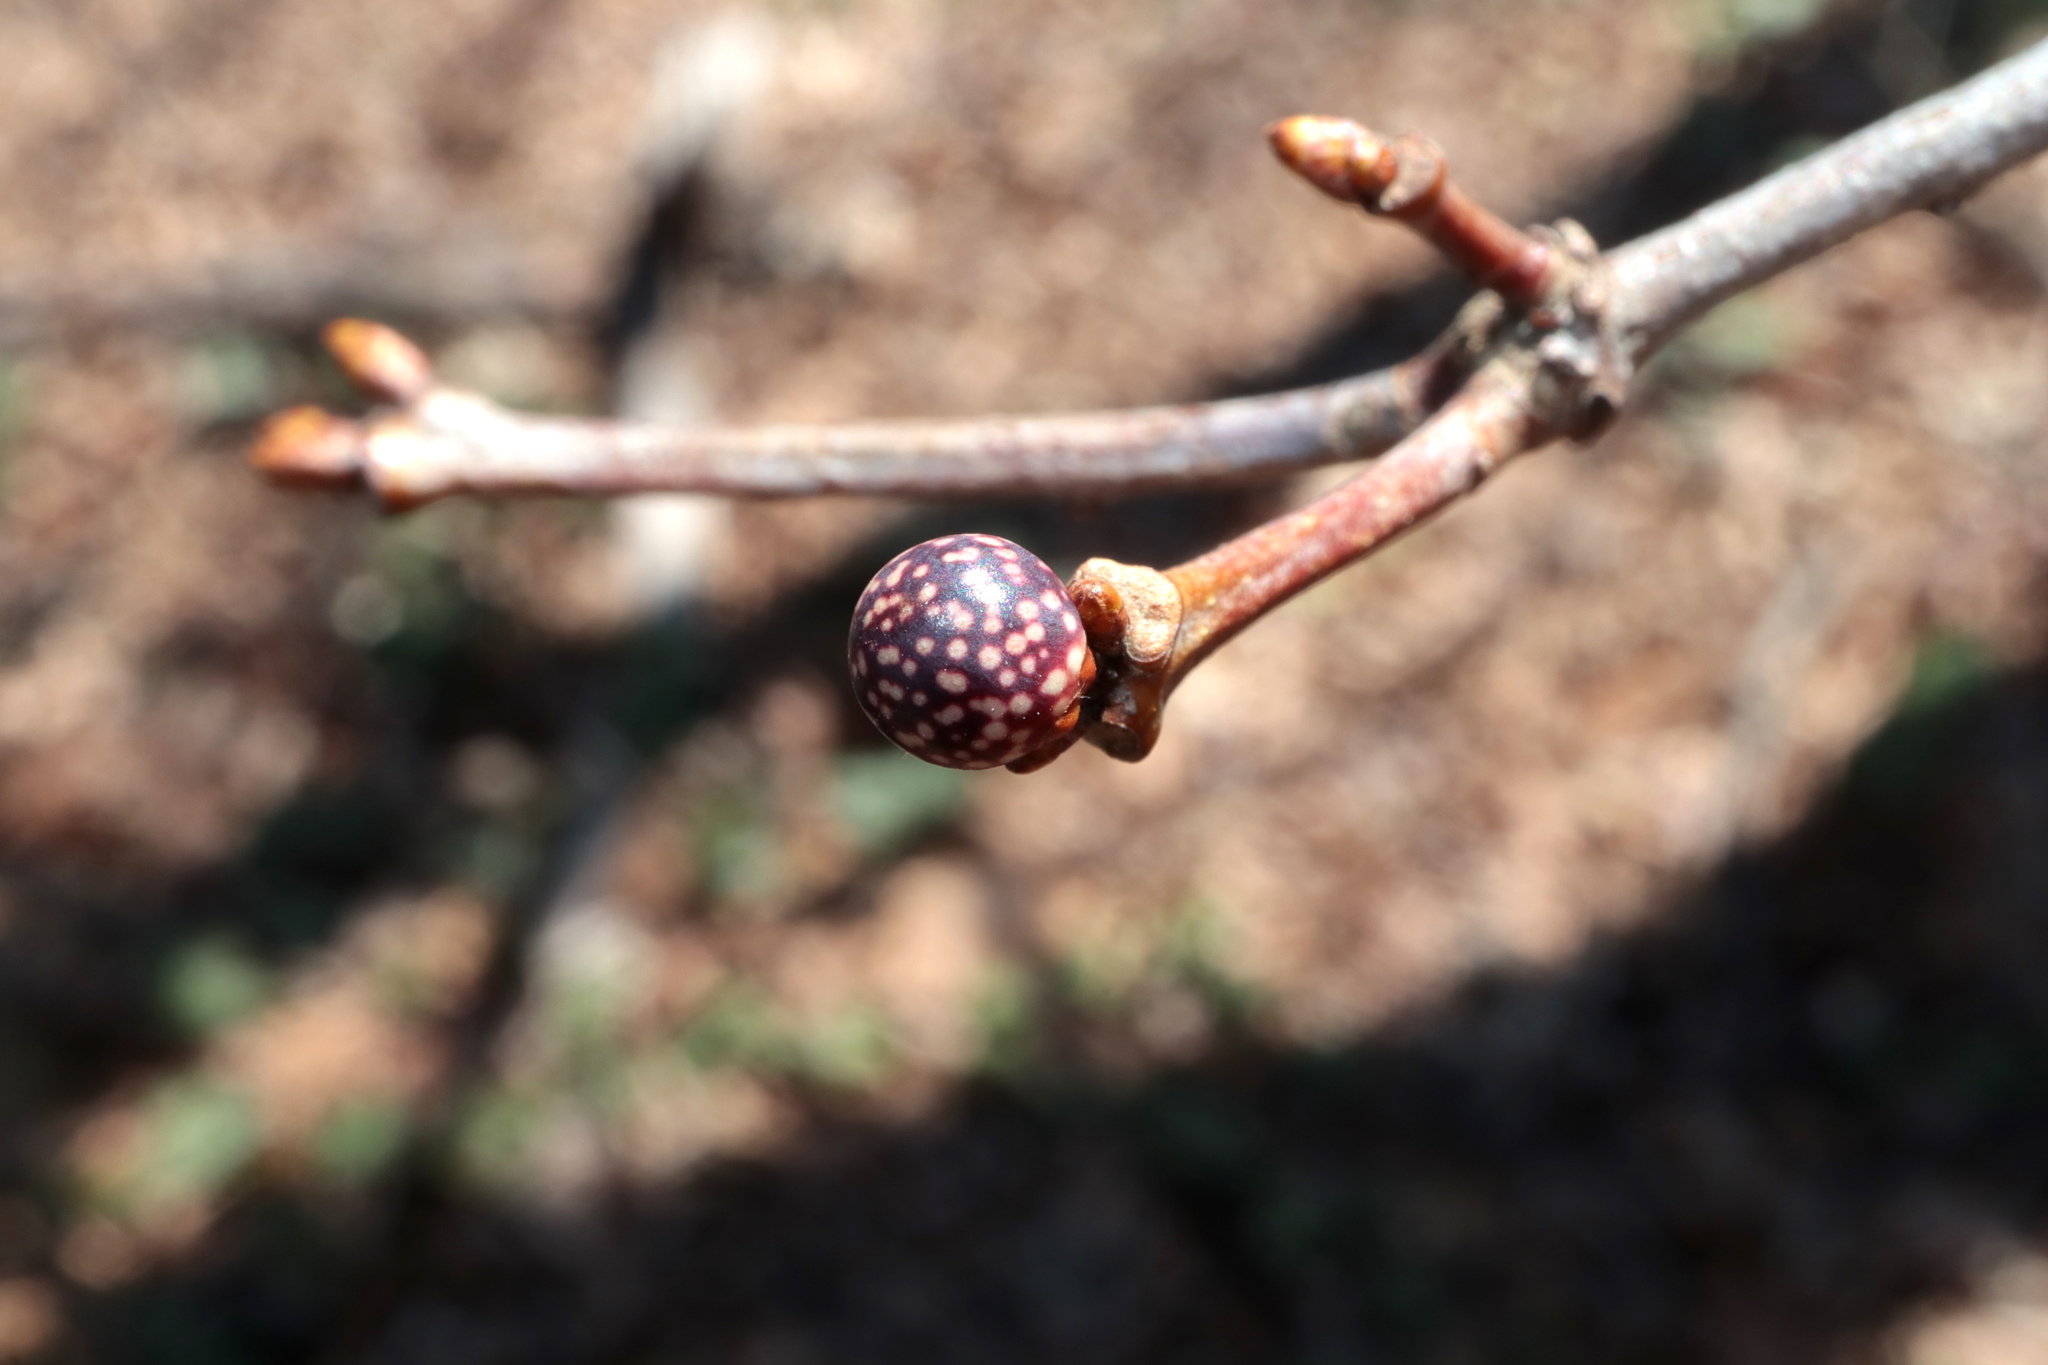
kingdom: Animalia
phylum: Arthropoda
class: Insecta
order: Hymenoptera
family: Cynipidae
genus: Andricus
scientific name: Andricus
